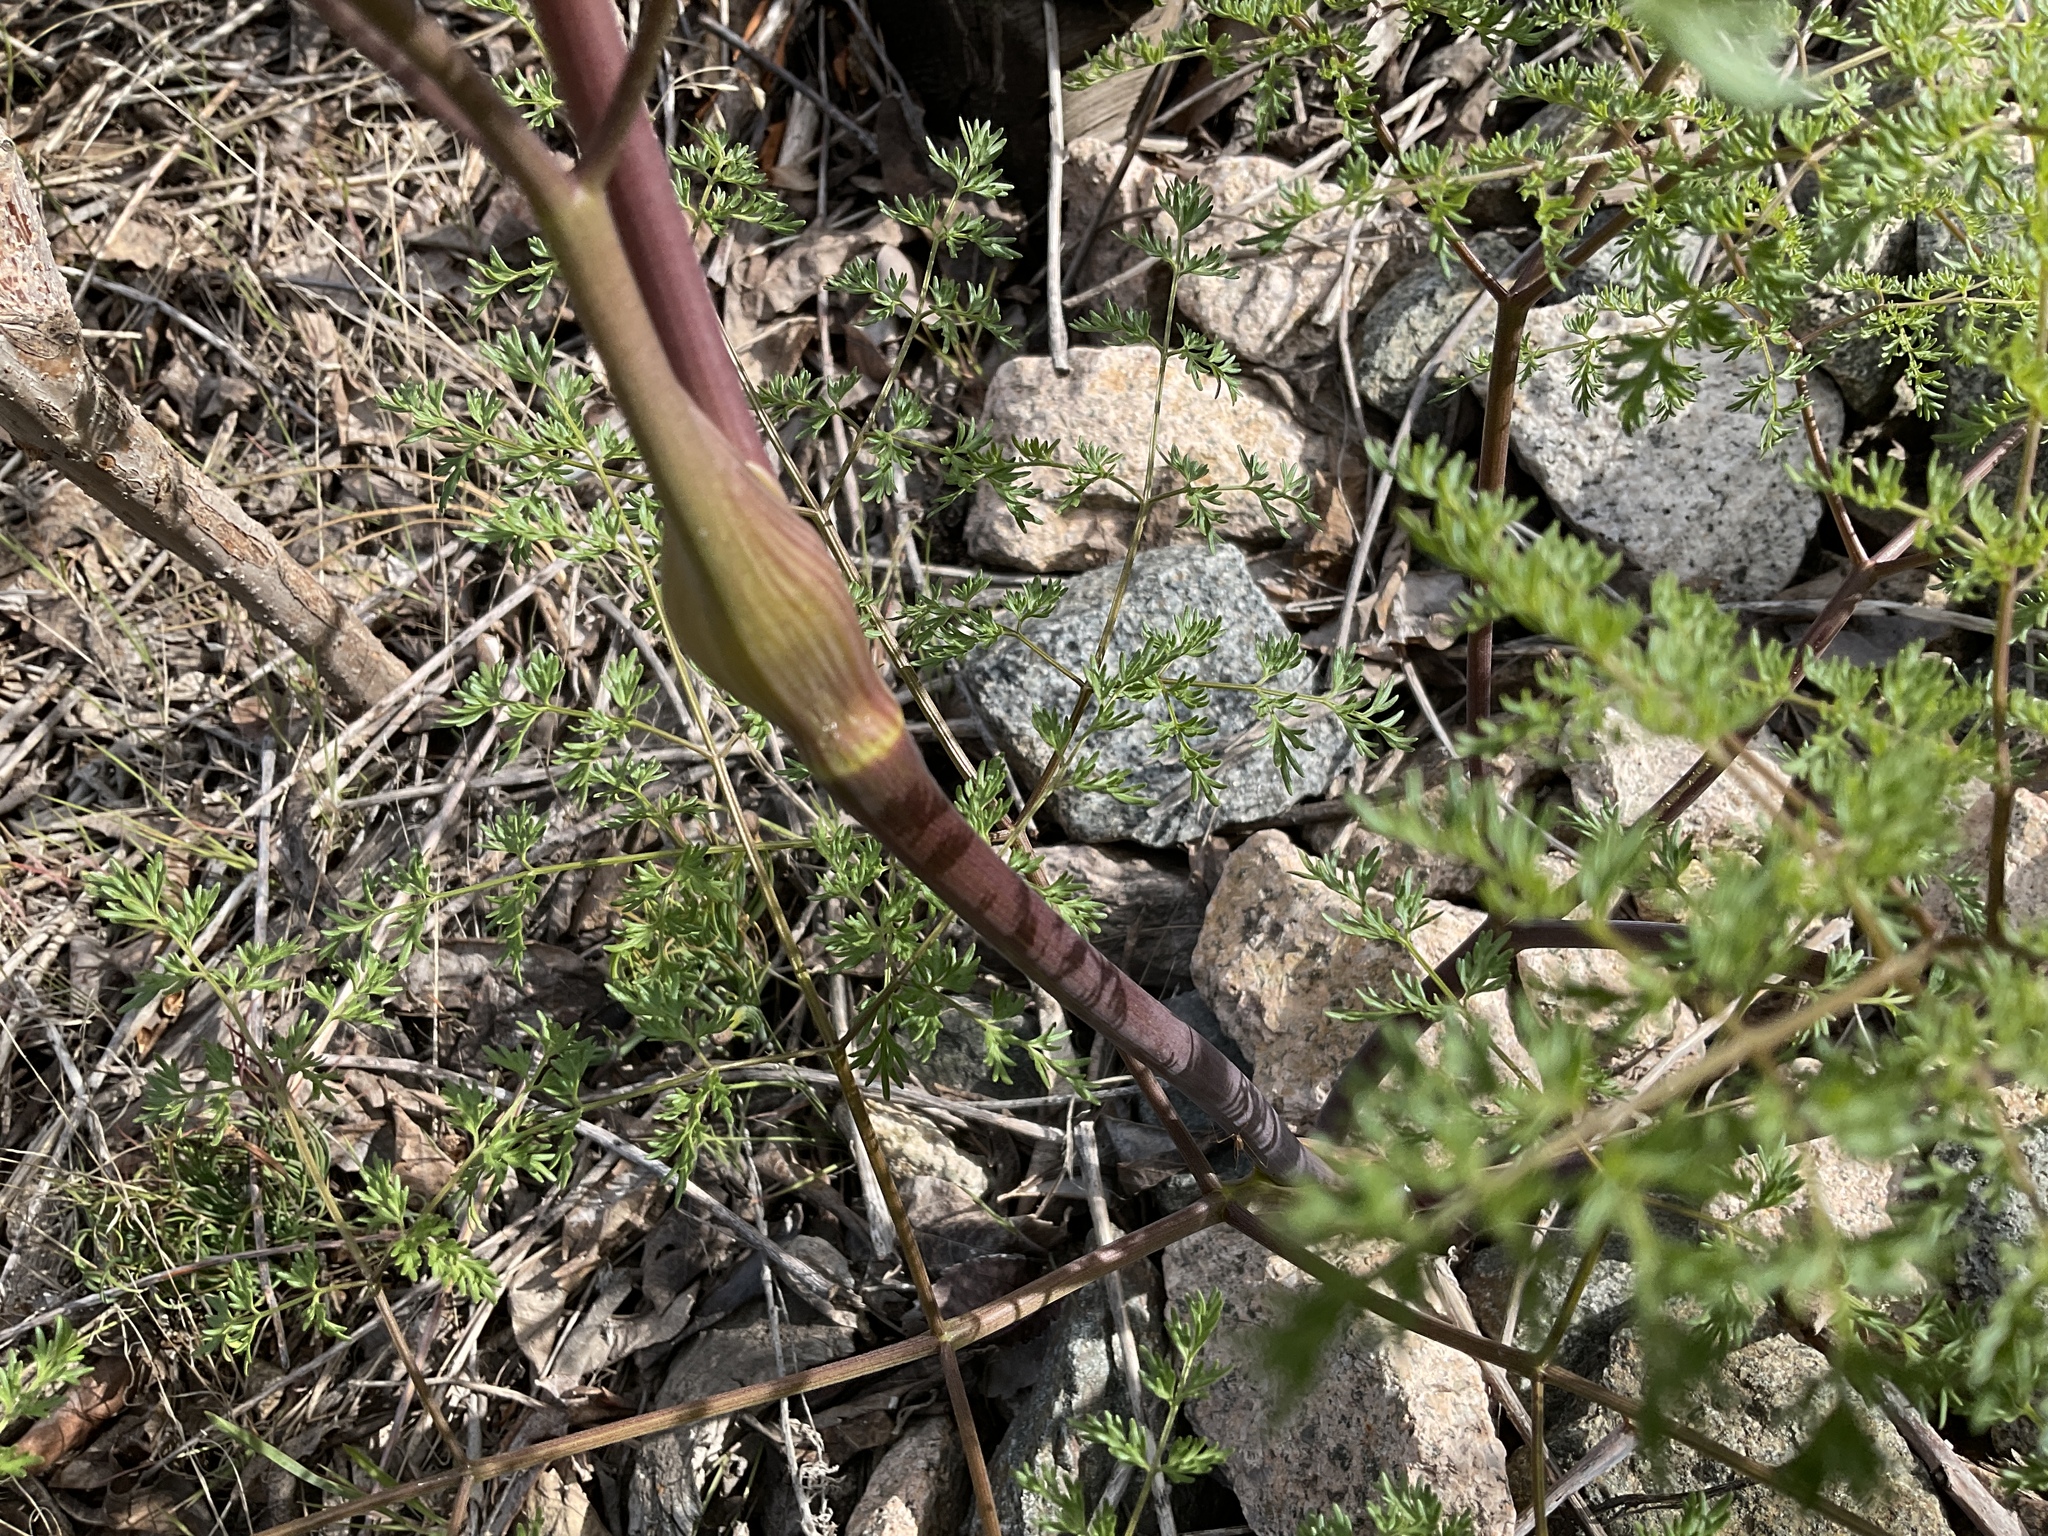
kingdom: Plantae
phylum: Tracheophyta
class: Magnoliopsida
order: Apiales
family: Apiaceae
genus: Lomatium
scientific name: Lomatium multifidum
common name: Carrot-leaved biscuitroot
